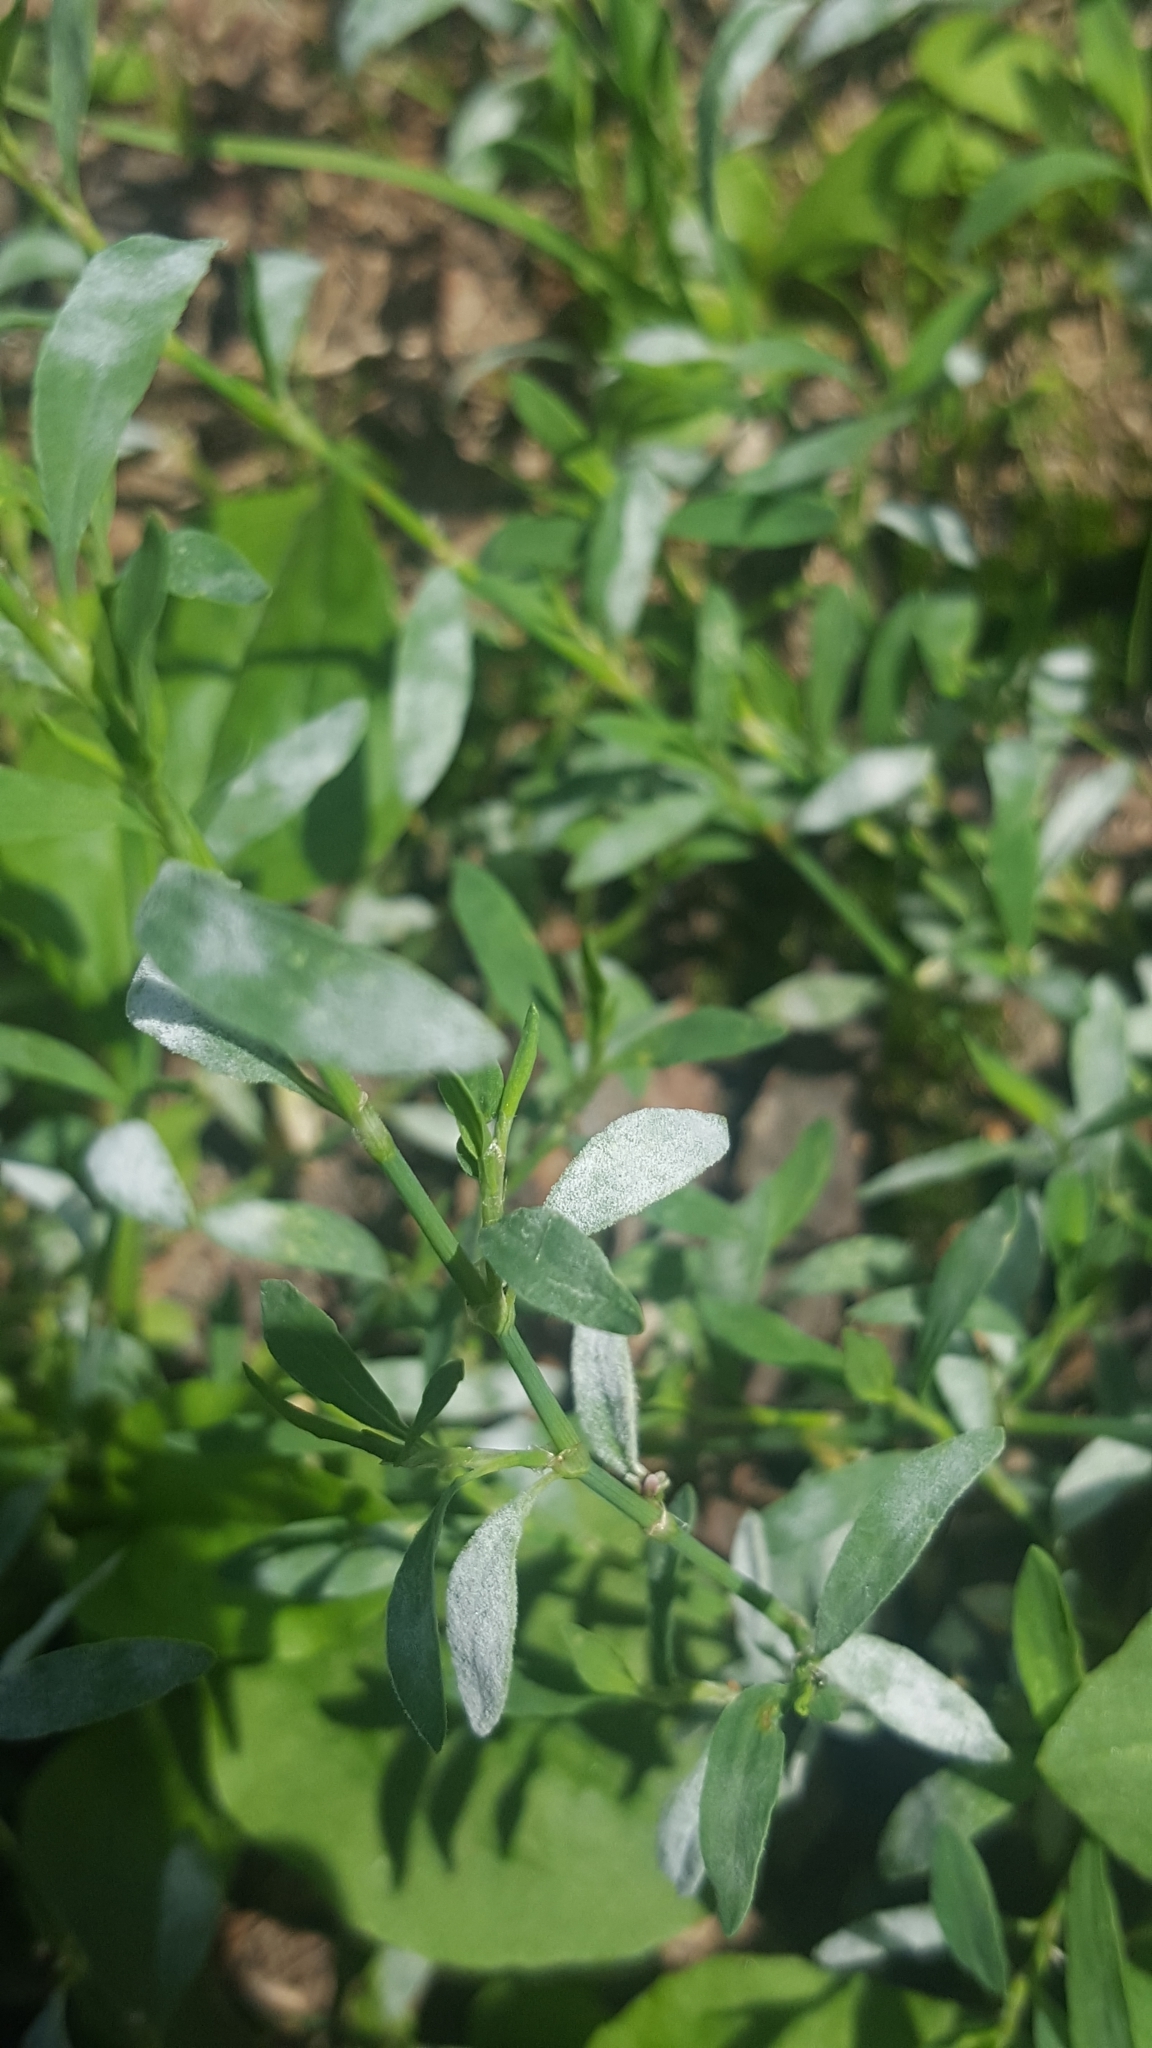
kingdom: Fungi
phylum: Ascomycota
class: Leotiomycetes
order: Helotiales
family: Erysiphaceae
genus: Erysiphe
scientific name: Erysiphe polygoni
